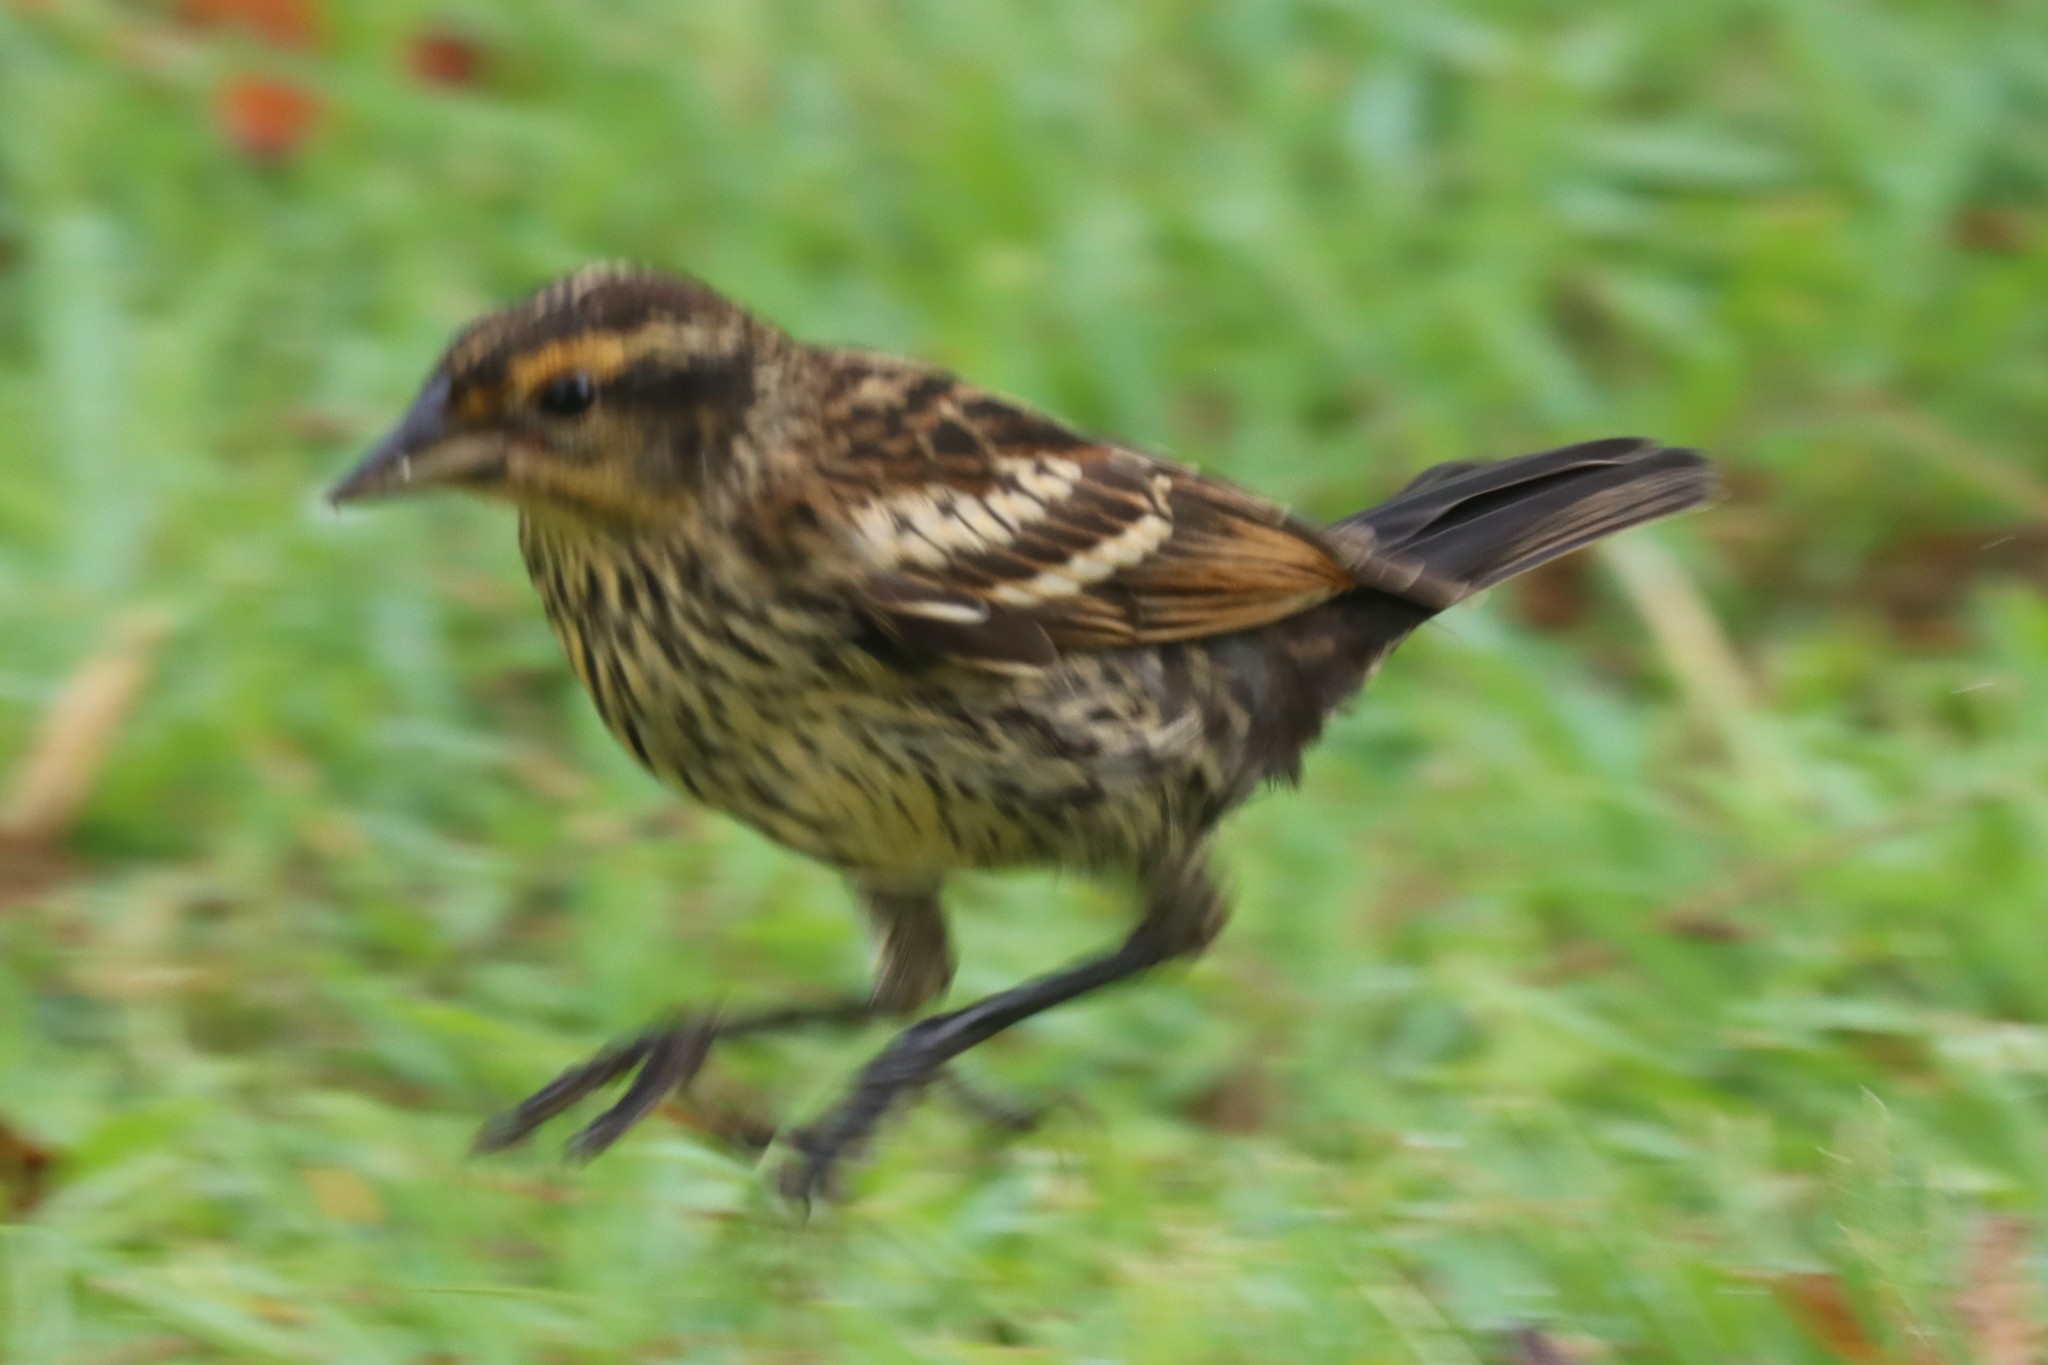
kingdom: Animalia
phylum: Chordata
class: Aves
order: Passeriformes
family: Icteridae
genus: Agelaius
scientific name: Agelaius phoeniceus
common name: Red-winged blackbird
